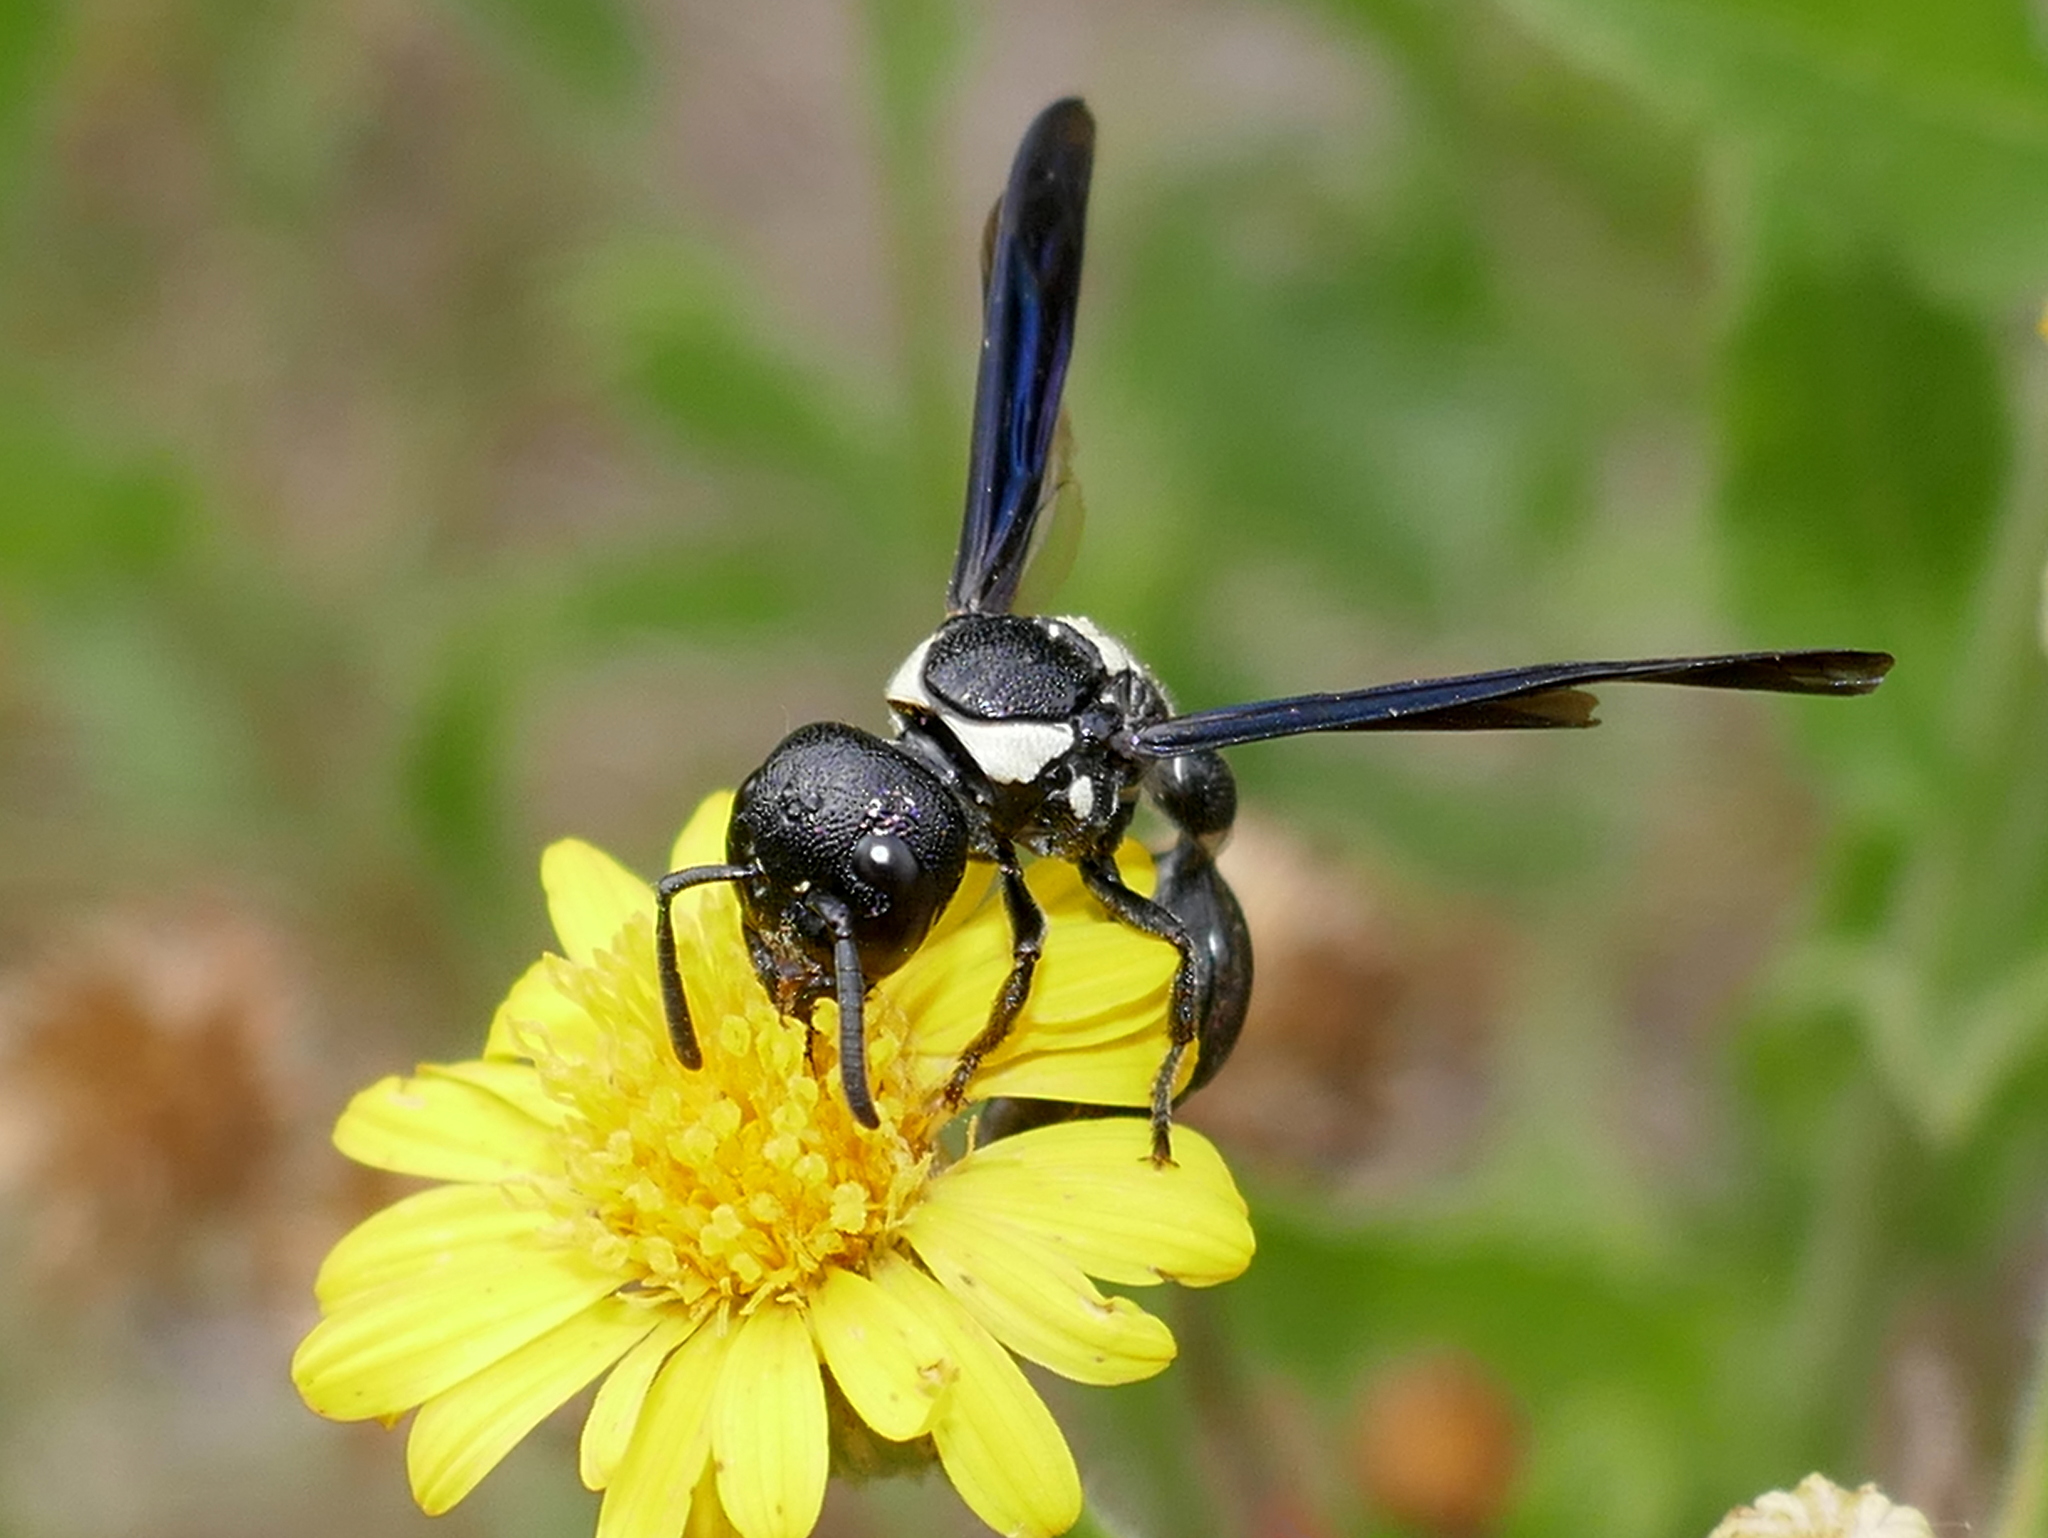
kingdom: Animalia
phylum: Arthropoda
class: Insecta
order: Hymenoptera
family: Eumenidae
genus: Zethus
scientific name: Zethus spinipes
